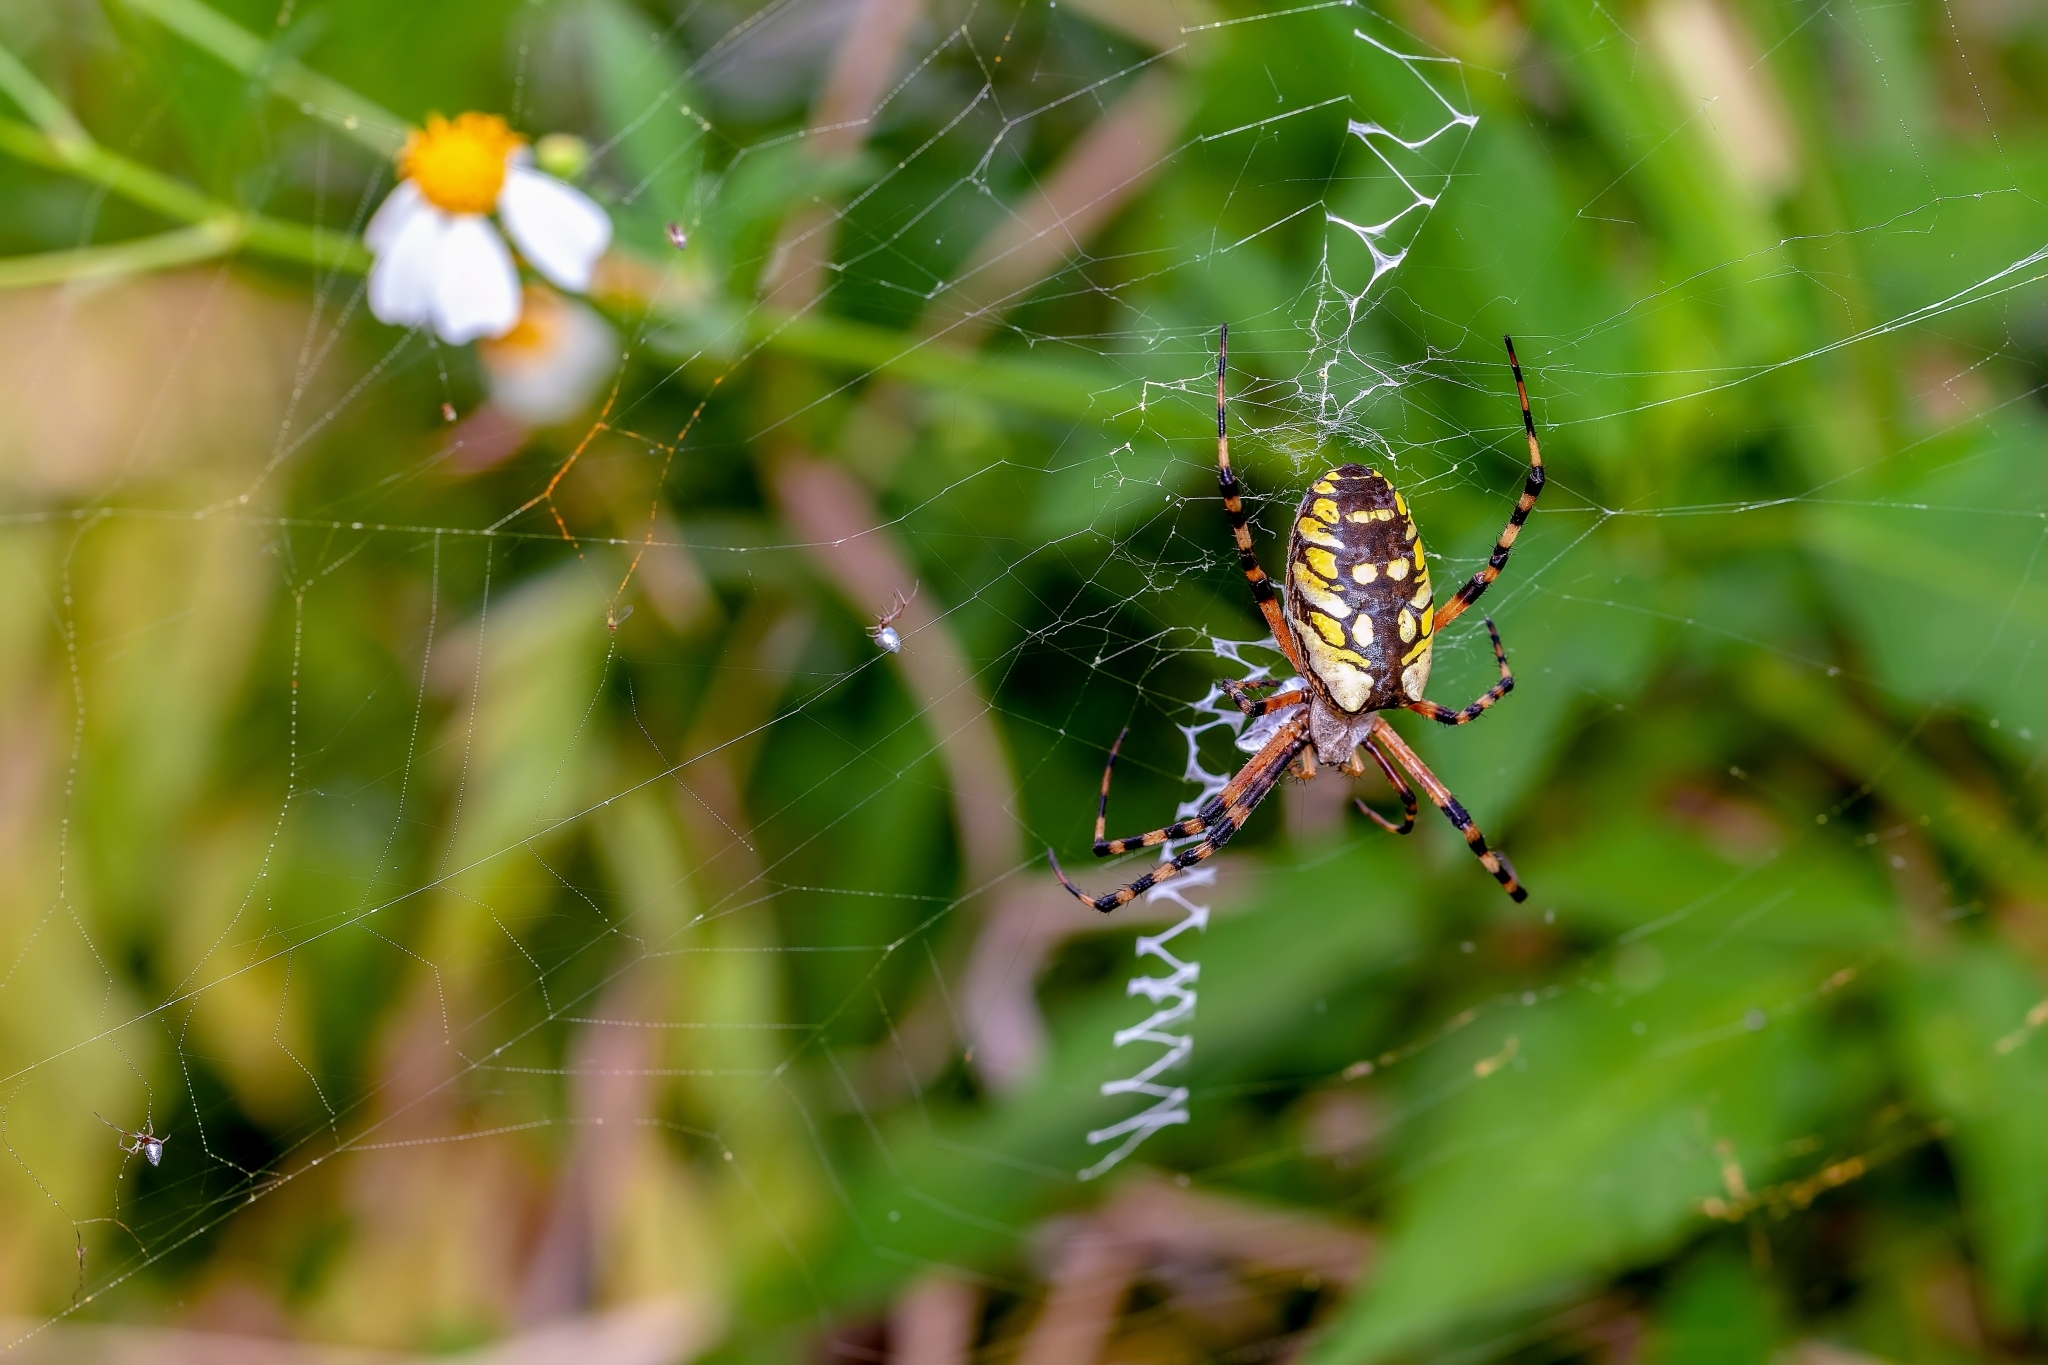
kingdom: Animalia
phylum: Arthropoda
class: Arachnida
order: Araneae
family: Araneidae
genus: Argiope
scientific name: Argiope aurantia
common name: Orb weavers
